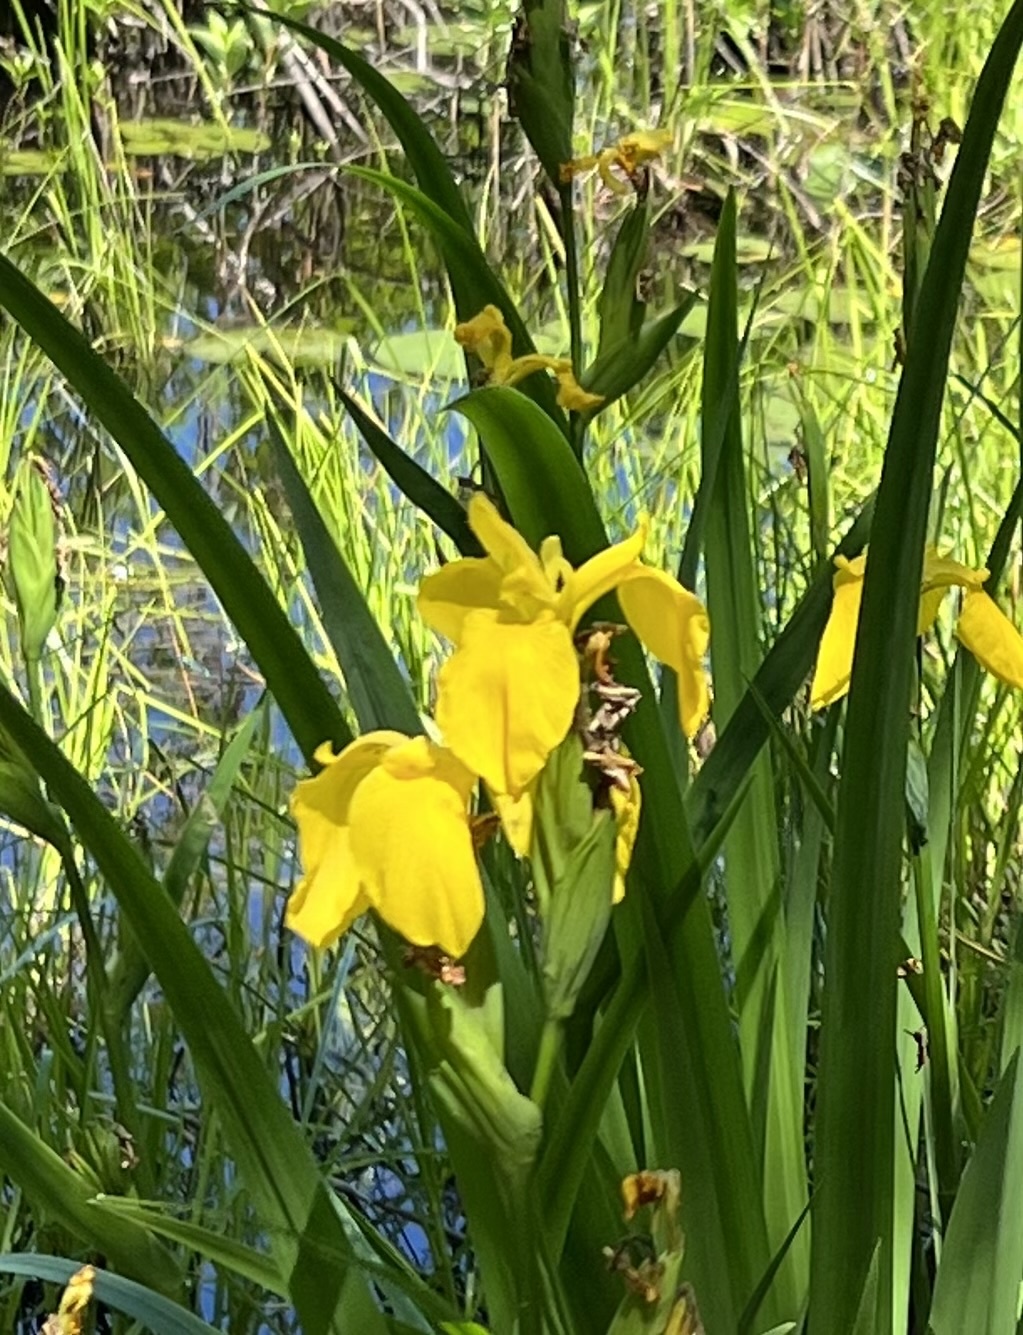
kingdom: Plantae
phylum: Tracheophyta
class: Liliopsida
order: Asparagales
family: Iridaceae
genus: Iris
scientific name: Iris pseudacorus
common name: Yellow flag
